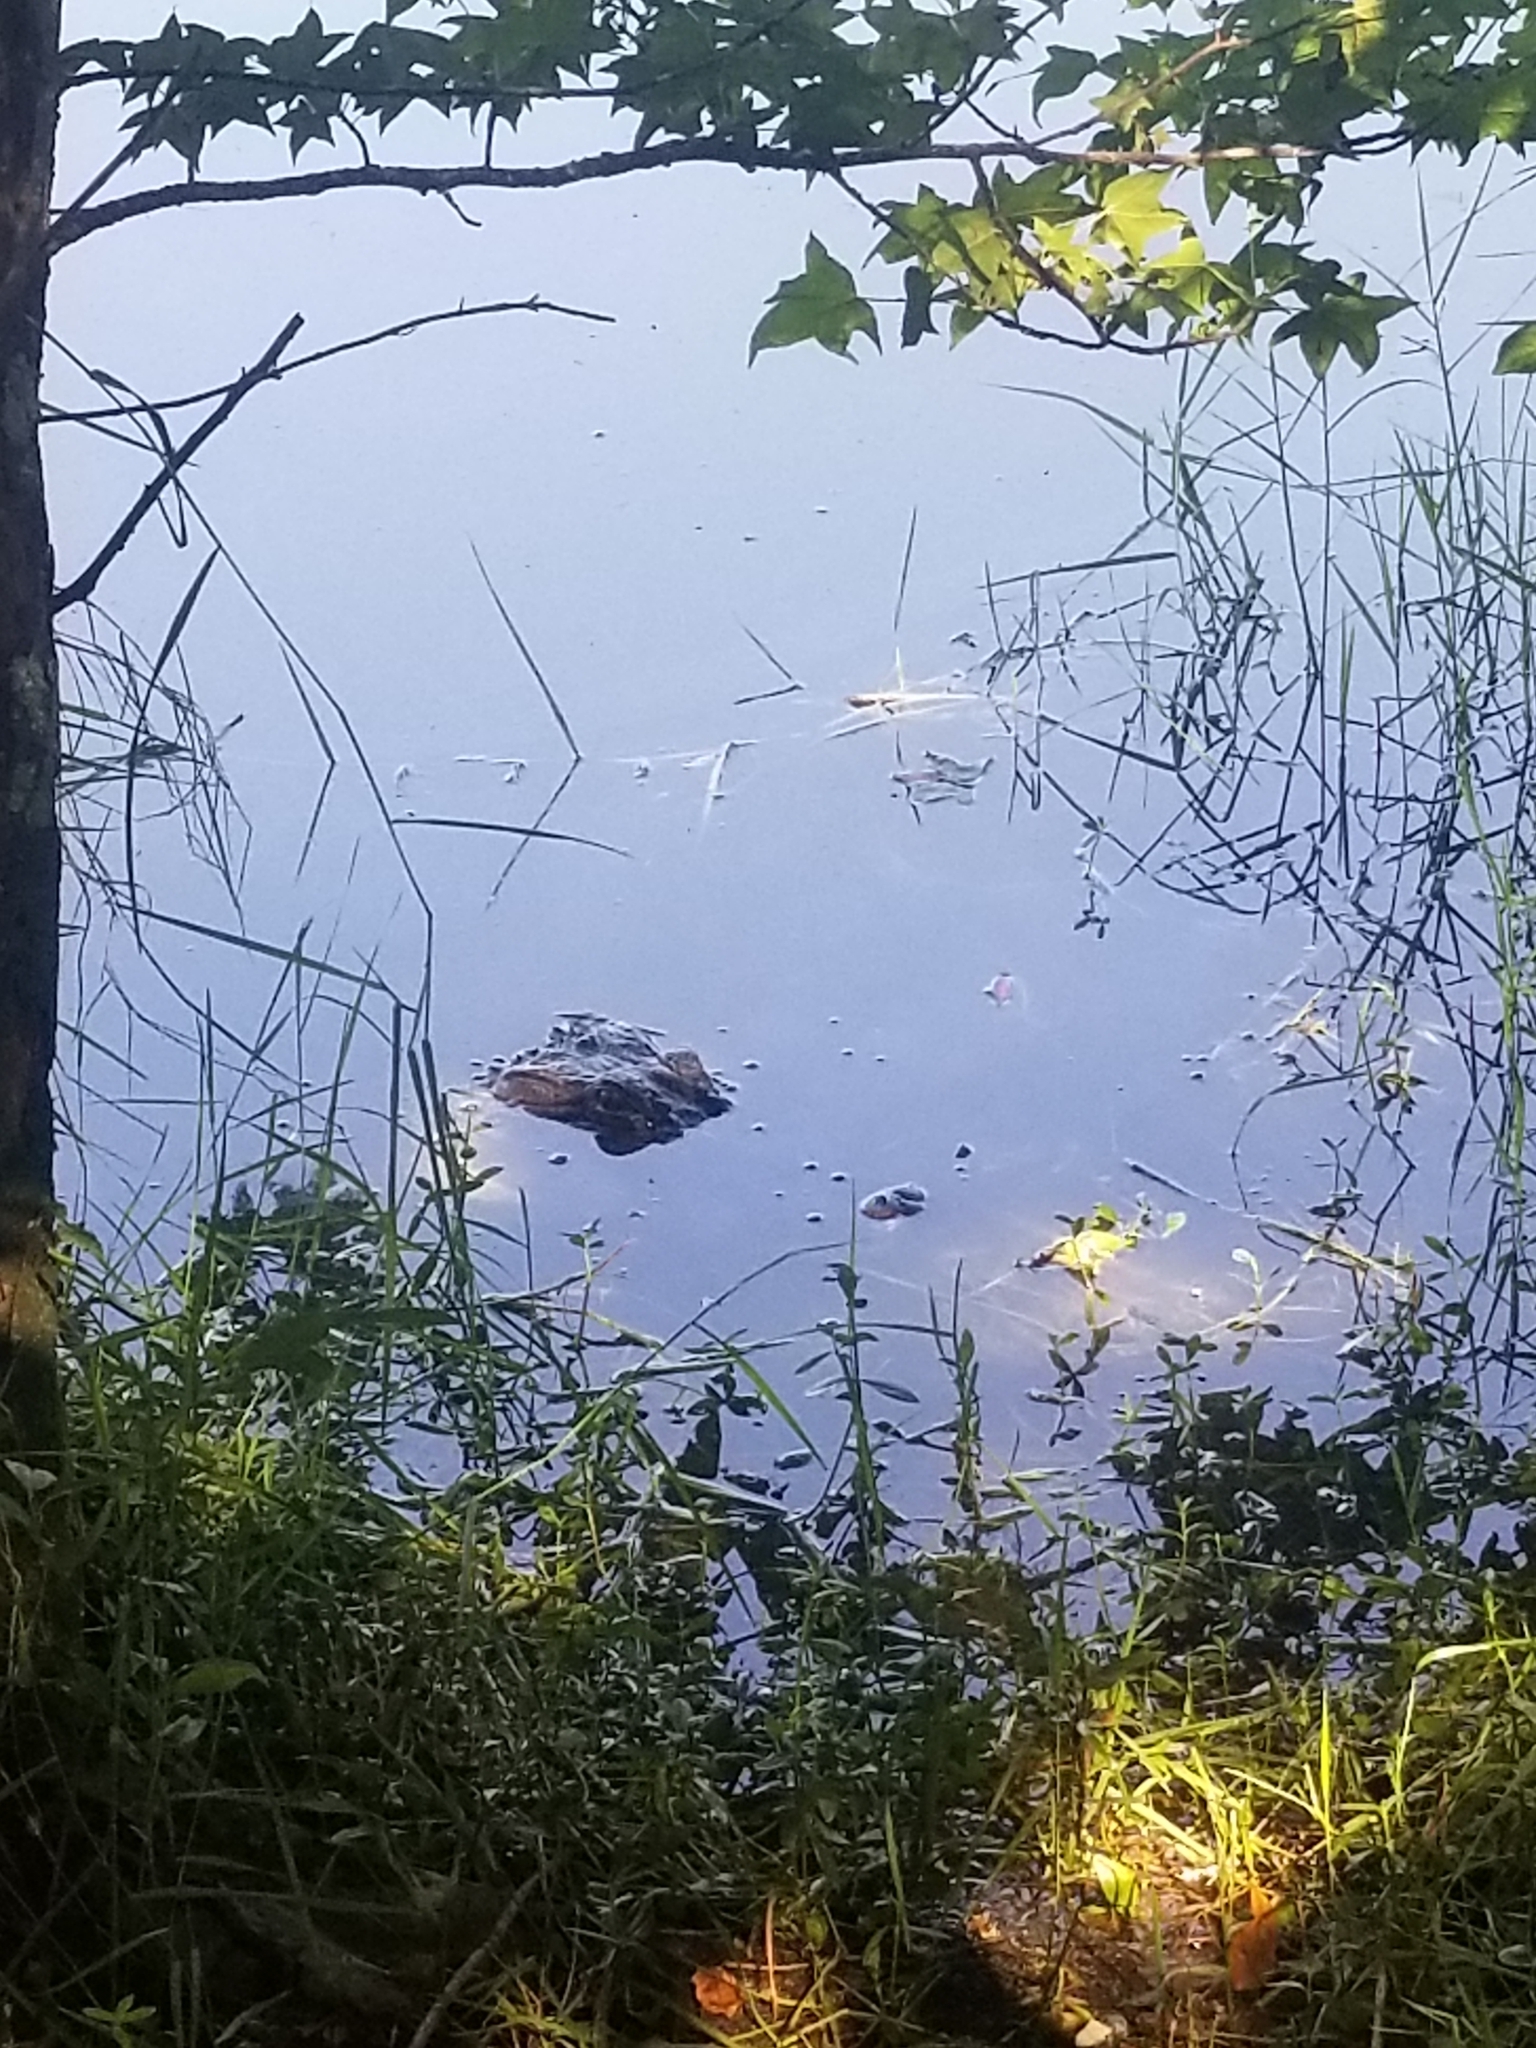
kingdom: Animalia
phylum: Chordata
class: Crocodylia
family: Alligatoridae
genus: Alligator
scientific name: Alligator mississippiensis
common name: American alligator
